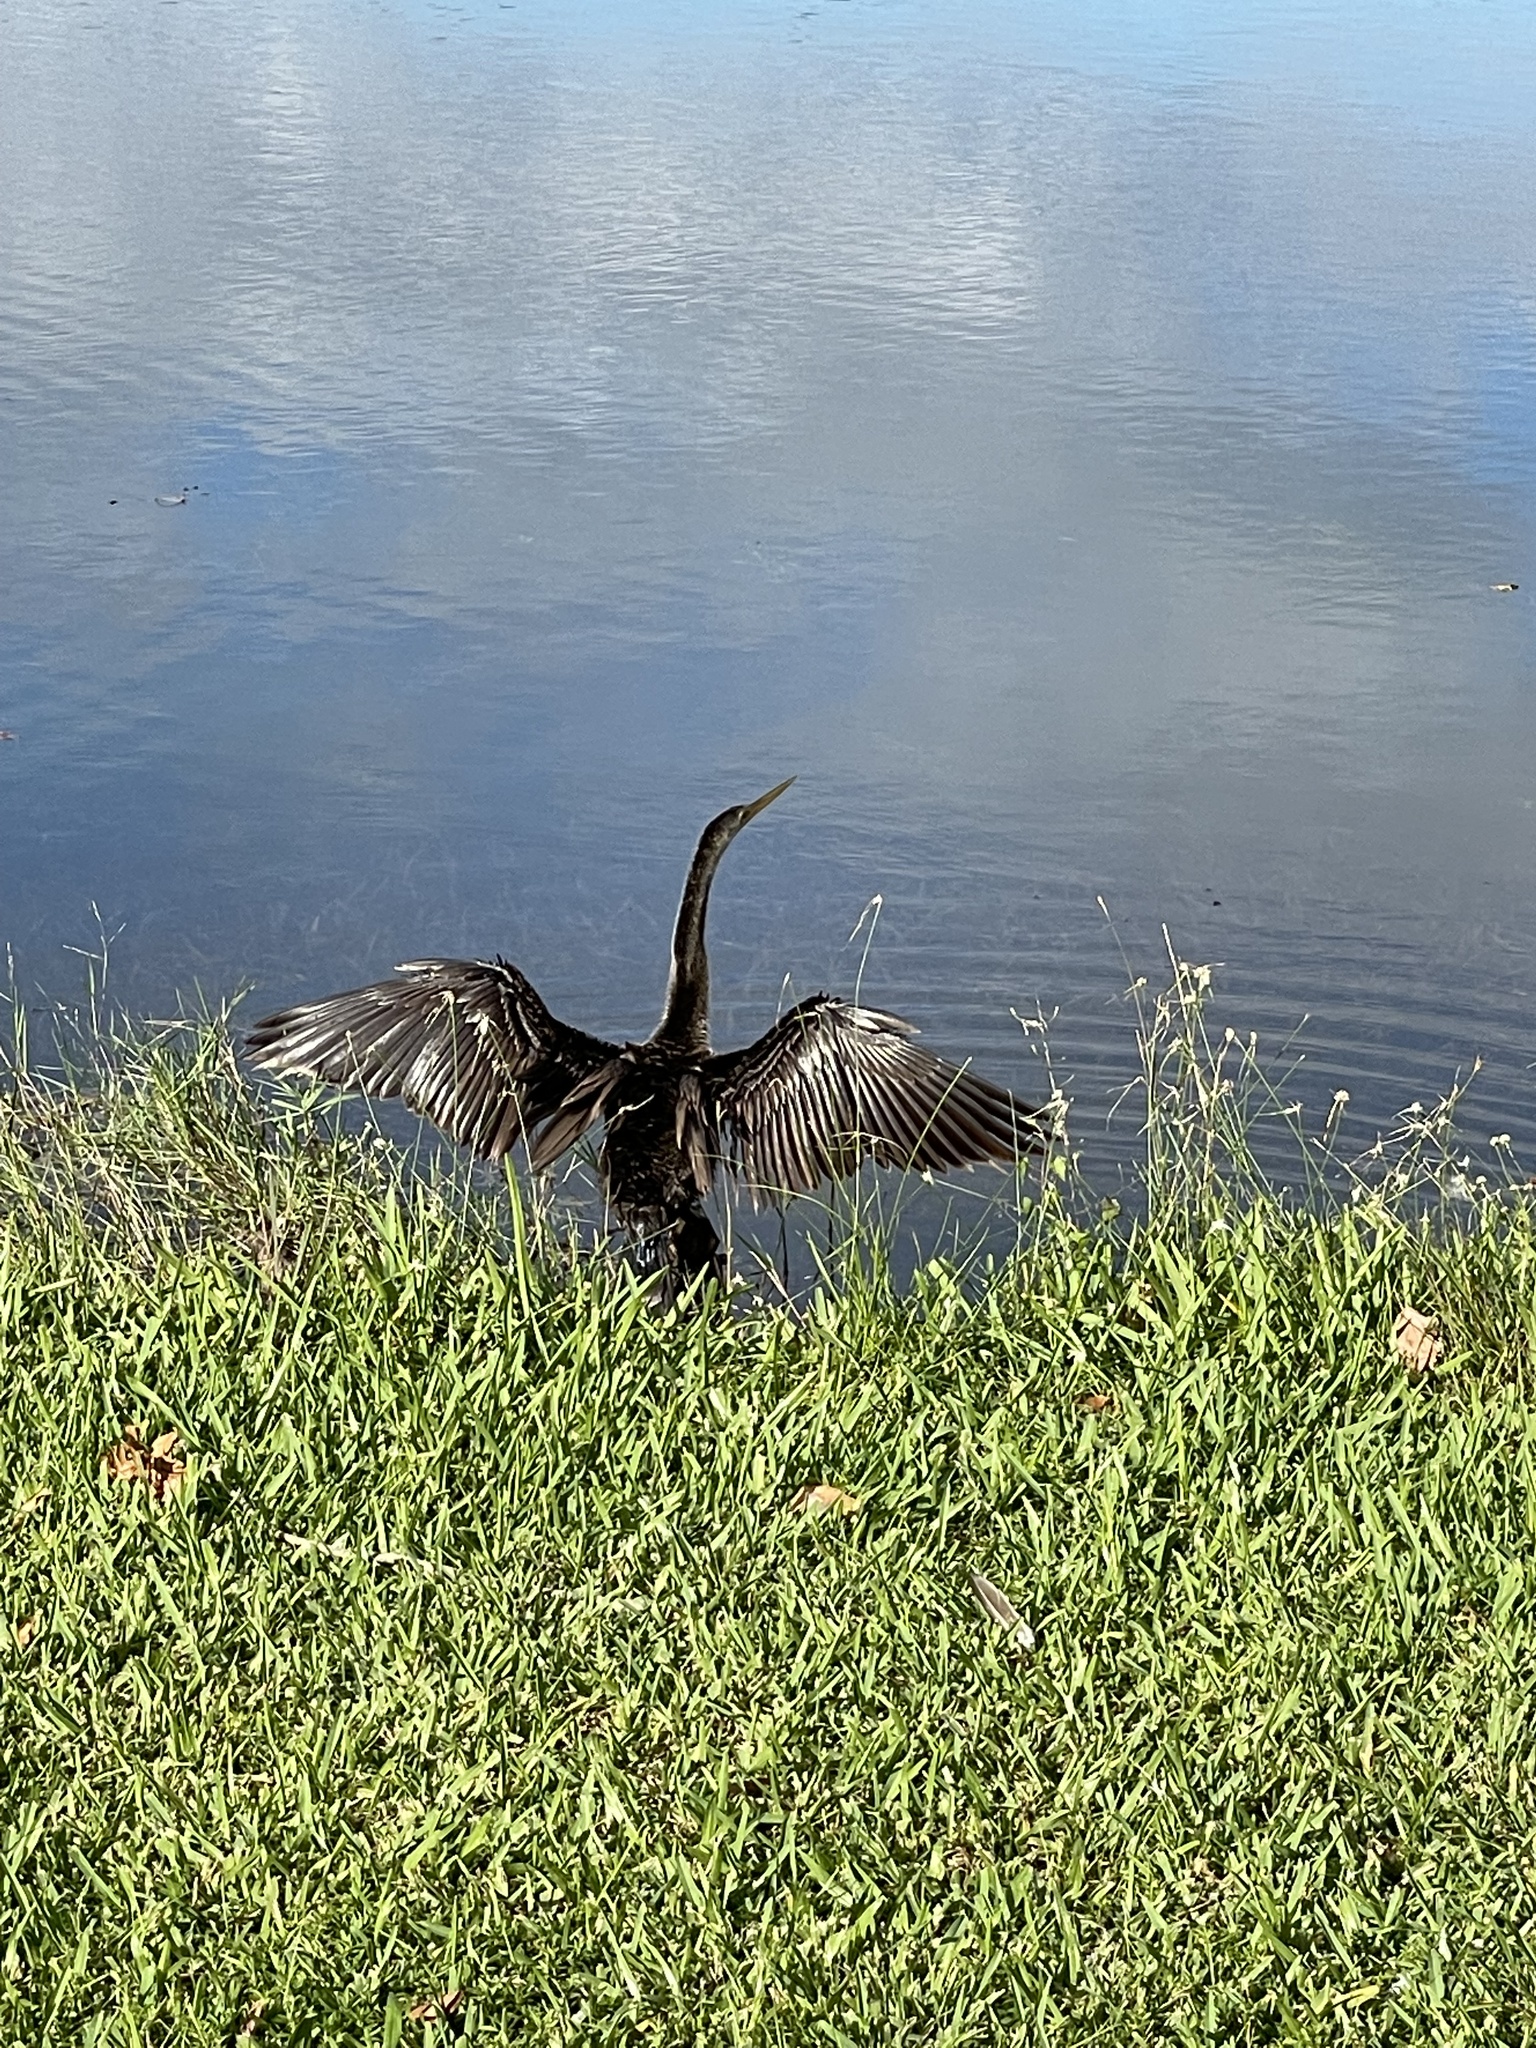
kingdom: Animalia
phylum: Chordata
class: Aves
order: Suliformes
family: Anhingidae
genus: Anhinga
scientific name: Anhinga anhinga
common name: Anhinga
